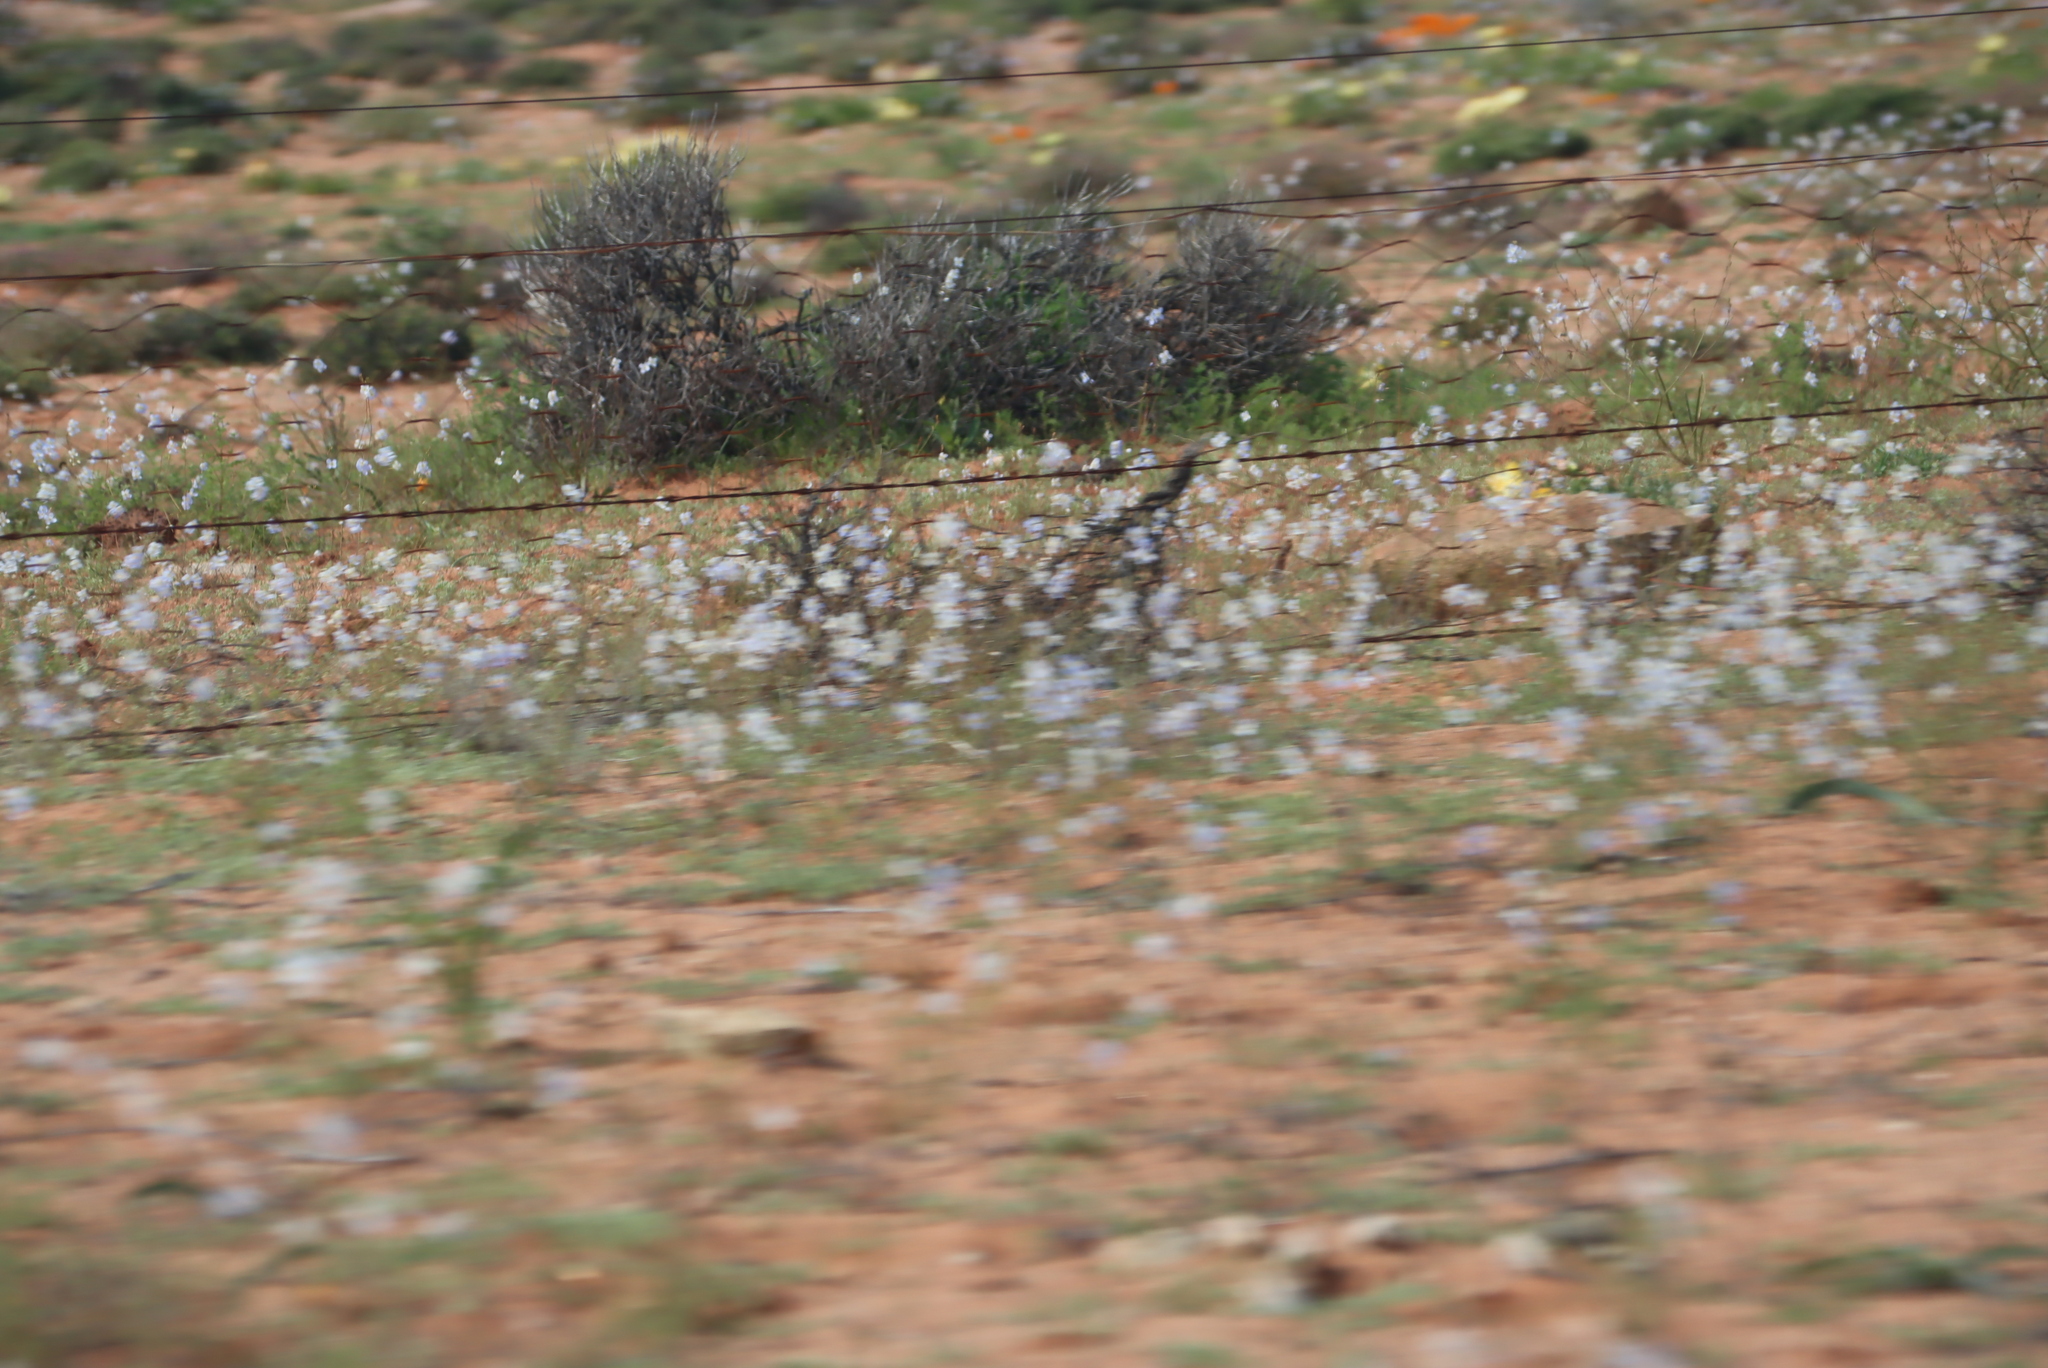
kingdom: Plantae
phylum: Tracheophyta
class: Magnoliopsida
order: Brassicales
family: Brassicaceae
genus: Heliophila
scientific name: Heliophila lactea
